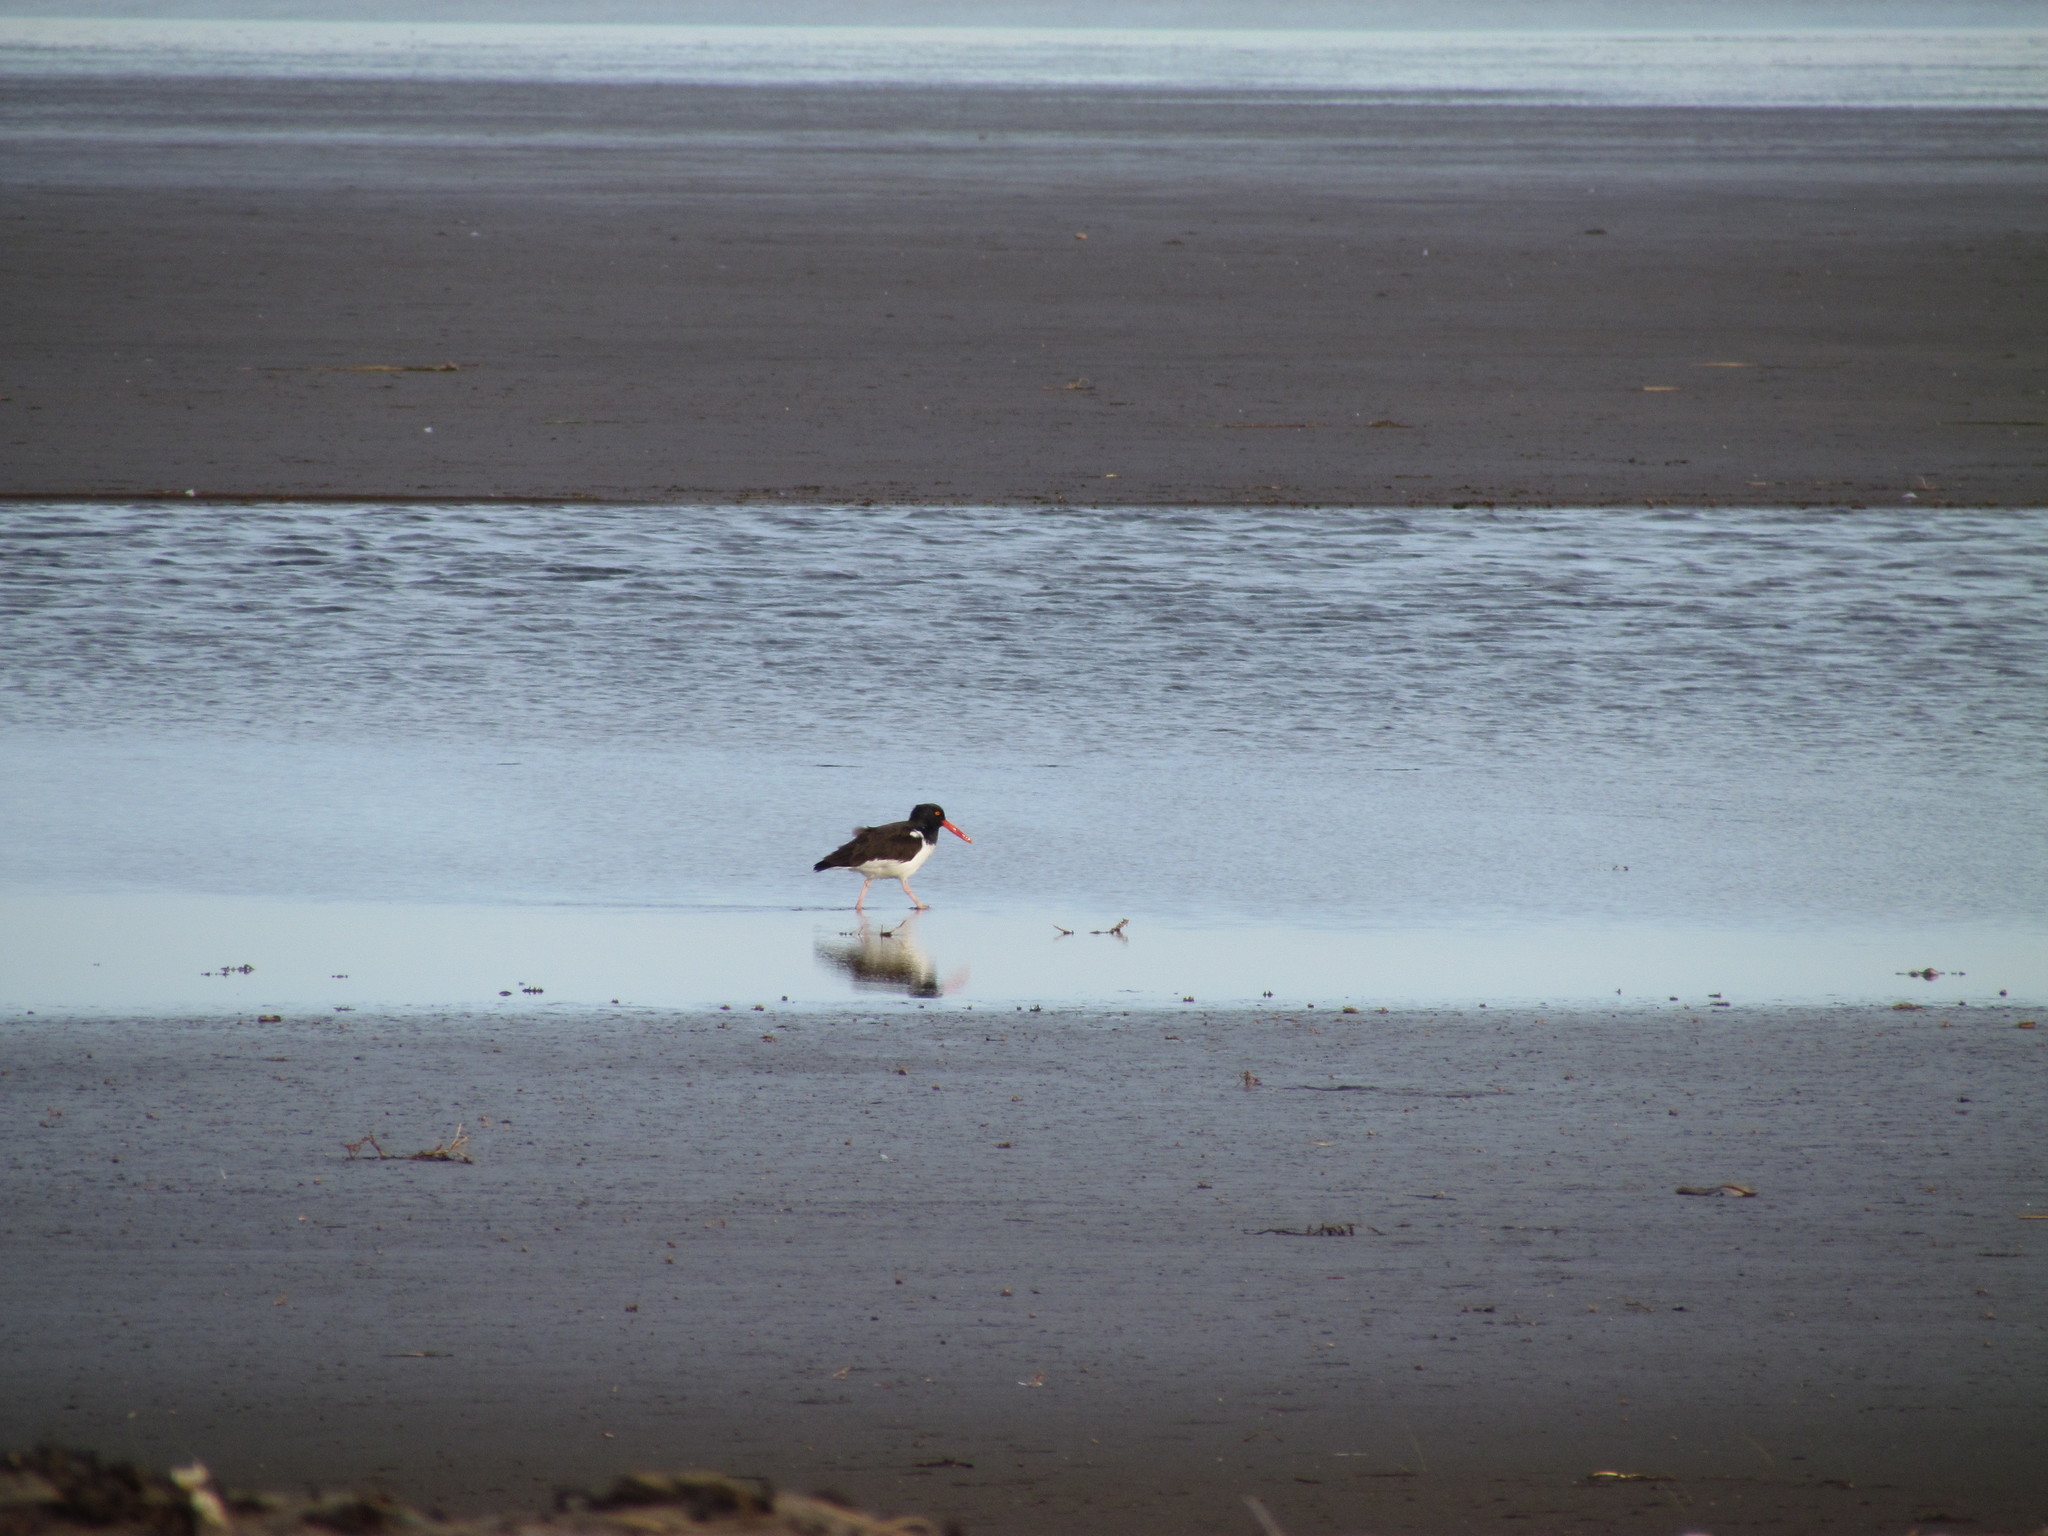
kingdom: Animalia
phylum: Chordata
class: Aves
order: Charadriiformes
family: Haematopodidae
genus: Haematopus
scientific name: Haematopus palliatus
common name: American oystercatcher
